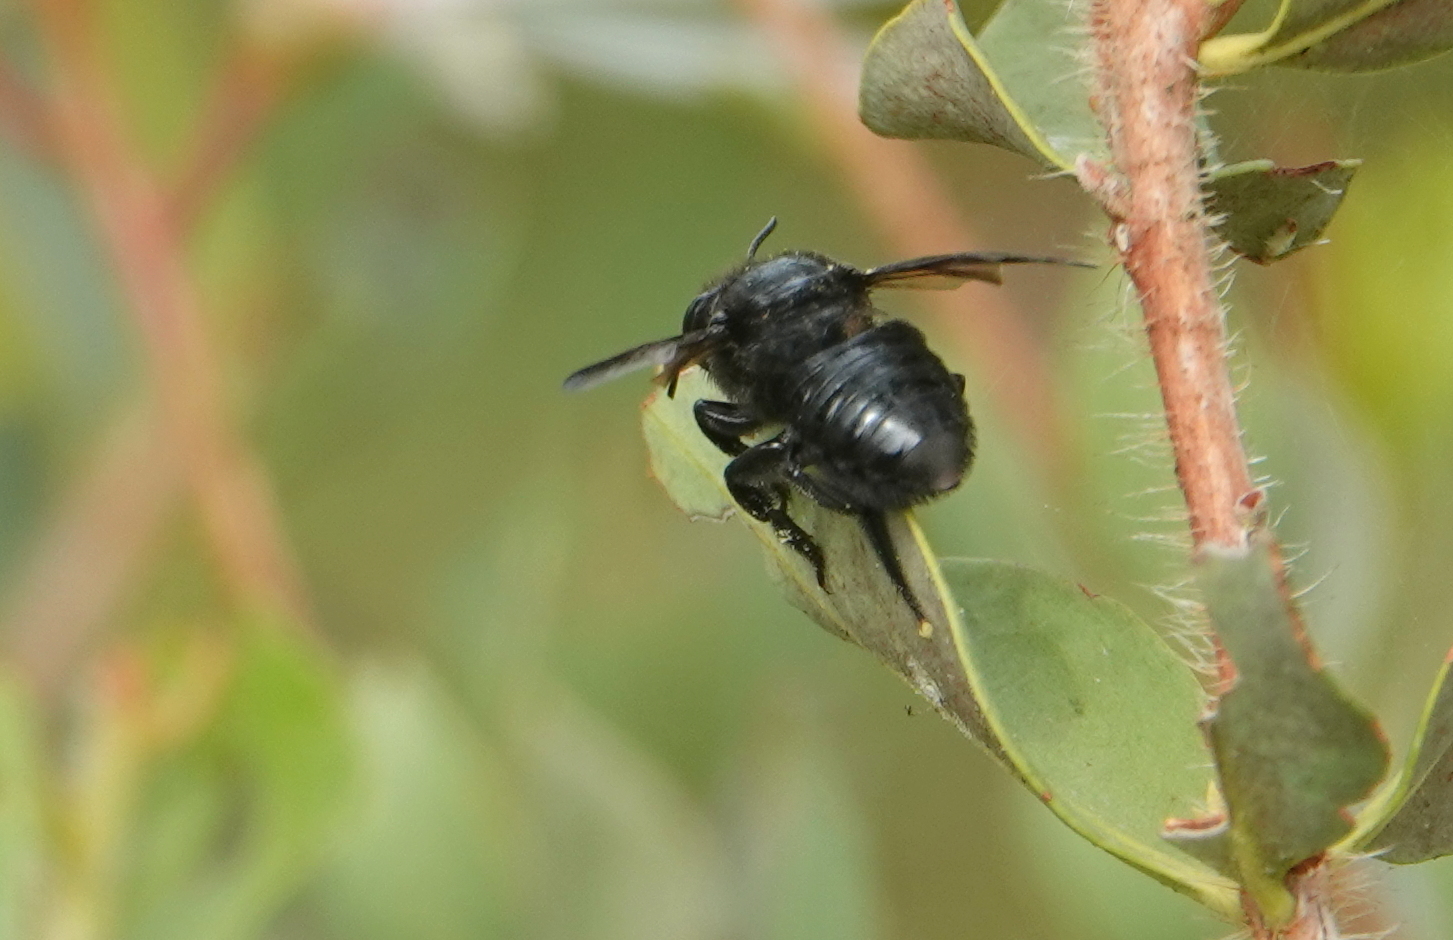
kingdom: Animalia
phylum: Arthropoda
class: Insecta
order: Hymenoptera
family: Megachilidae
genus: Megachile
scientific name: Megachile xylocopoides
